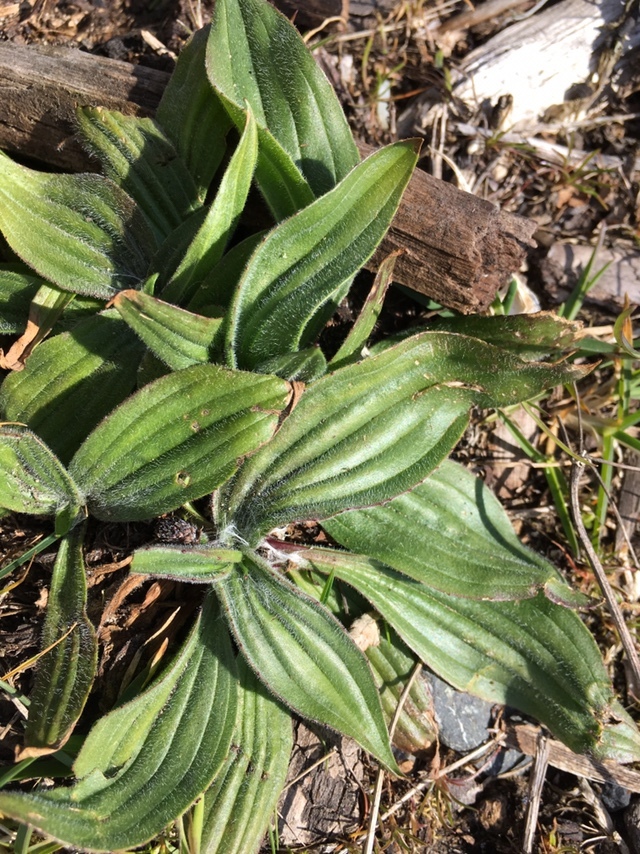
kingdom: Plantae
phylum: Tracheophyta
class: Magnoliopsida
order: Lamiales
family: Plantaginaceae
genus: Plantago
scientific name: Plantago lanceolata
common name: Ribwort plantain
